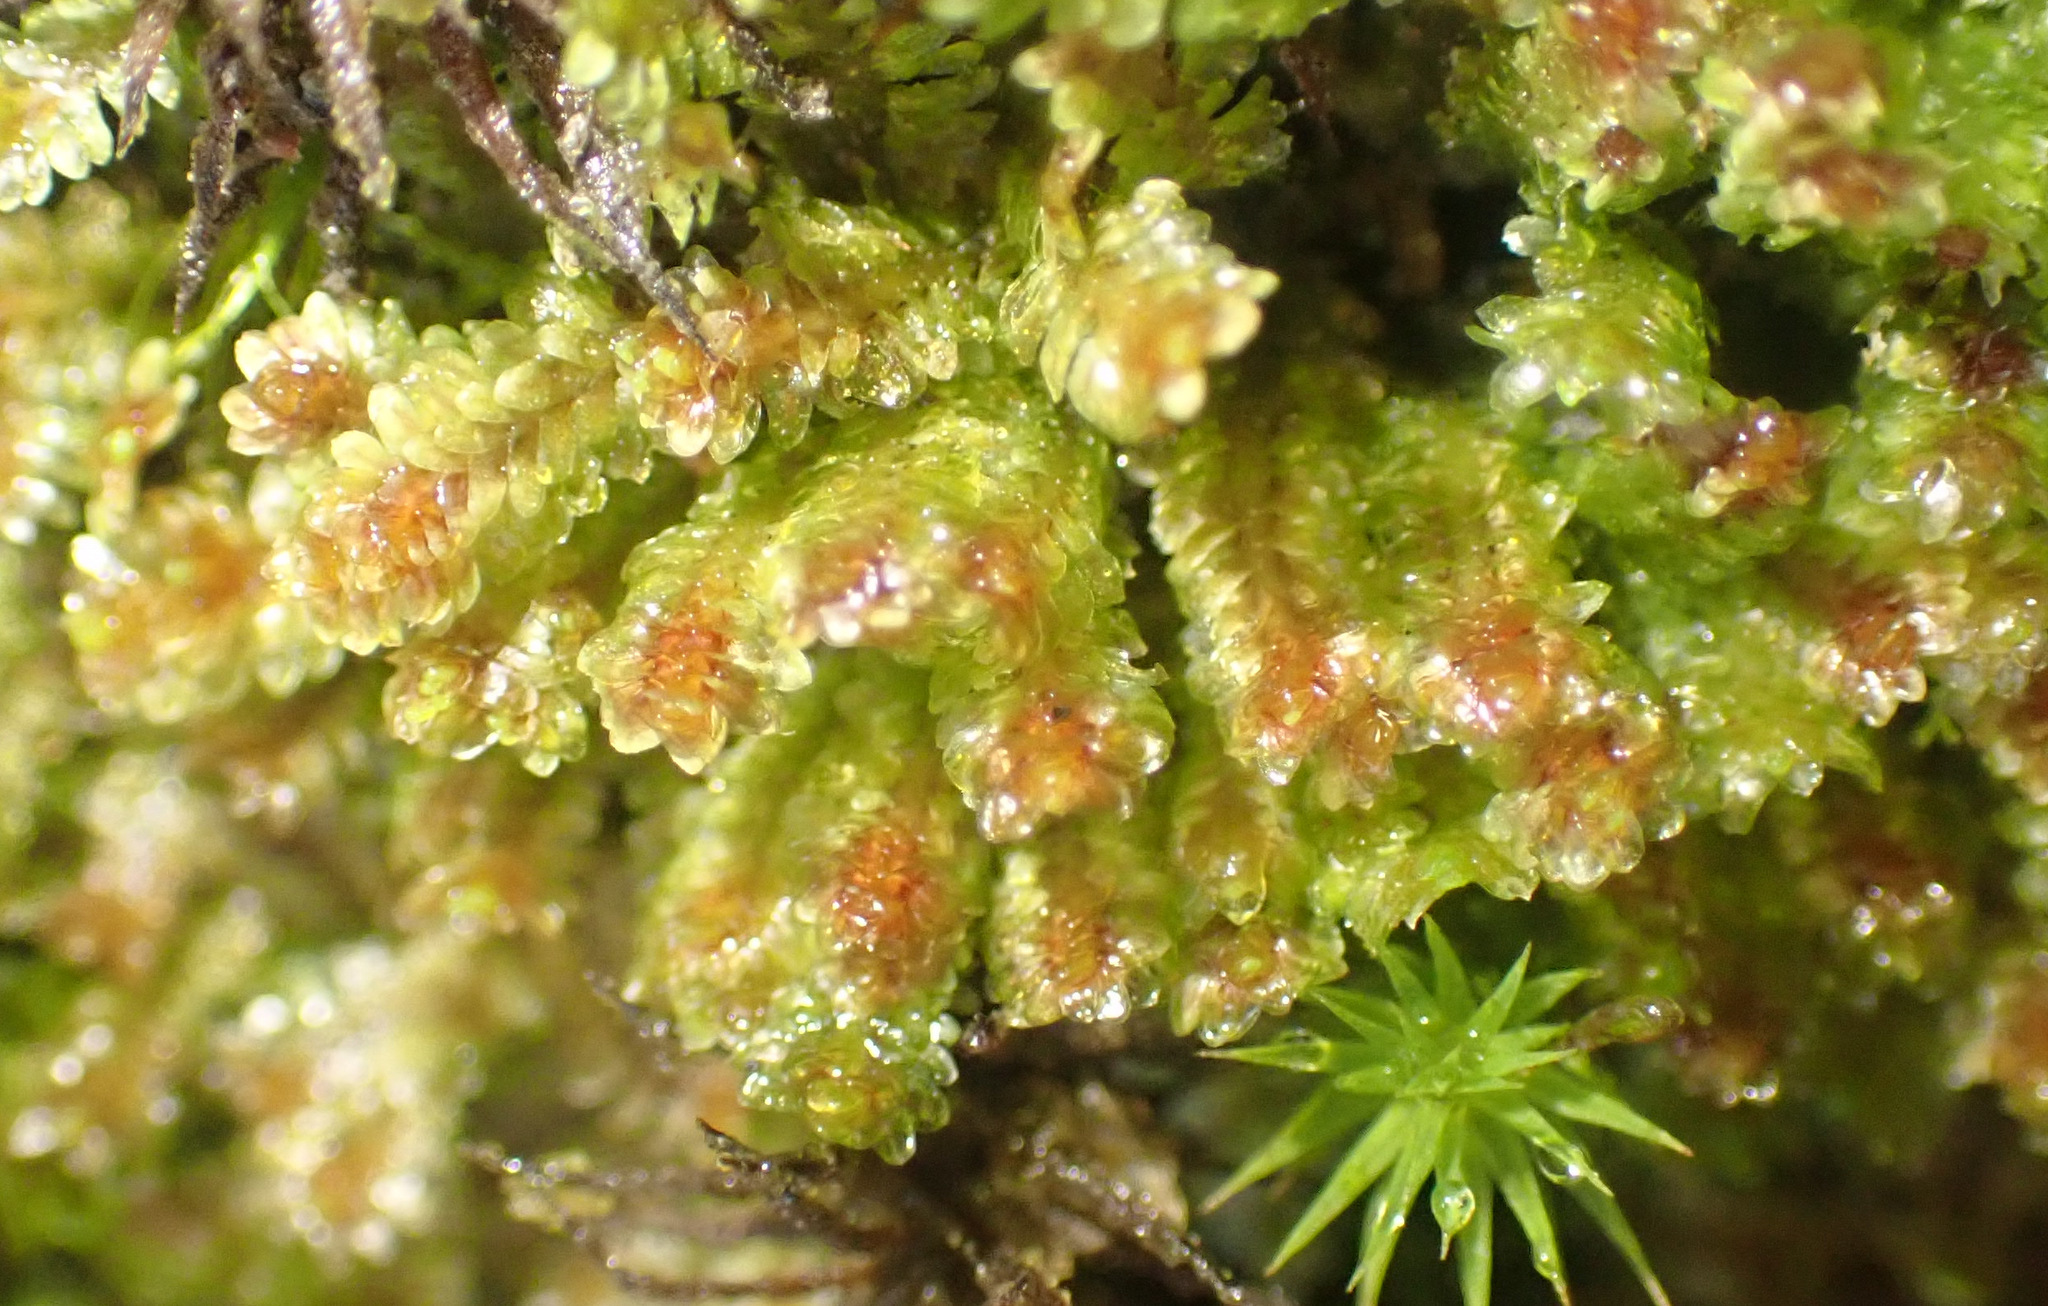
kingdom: Plantae
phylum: Marchantiophyta
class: Jungermanniopsida
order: Jungermanniales
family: Scapaniaceae
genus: Diplophyllum
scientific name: Diplophyllum albicans
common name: White earwort
